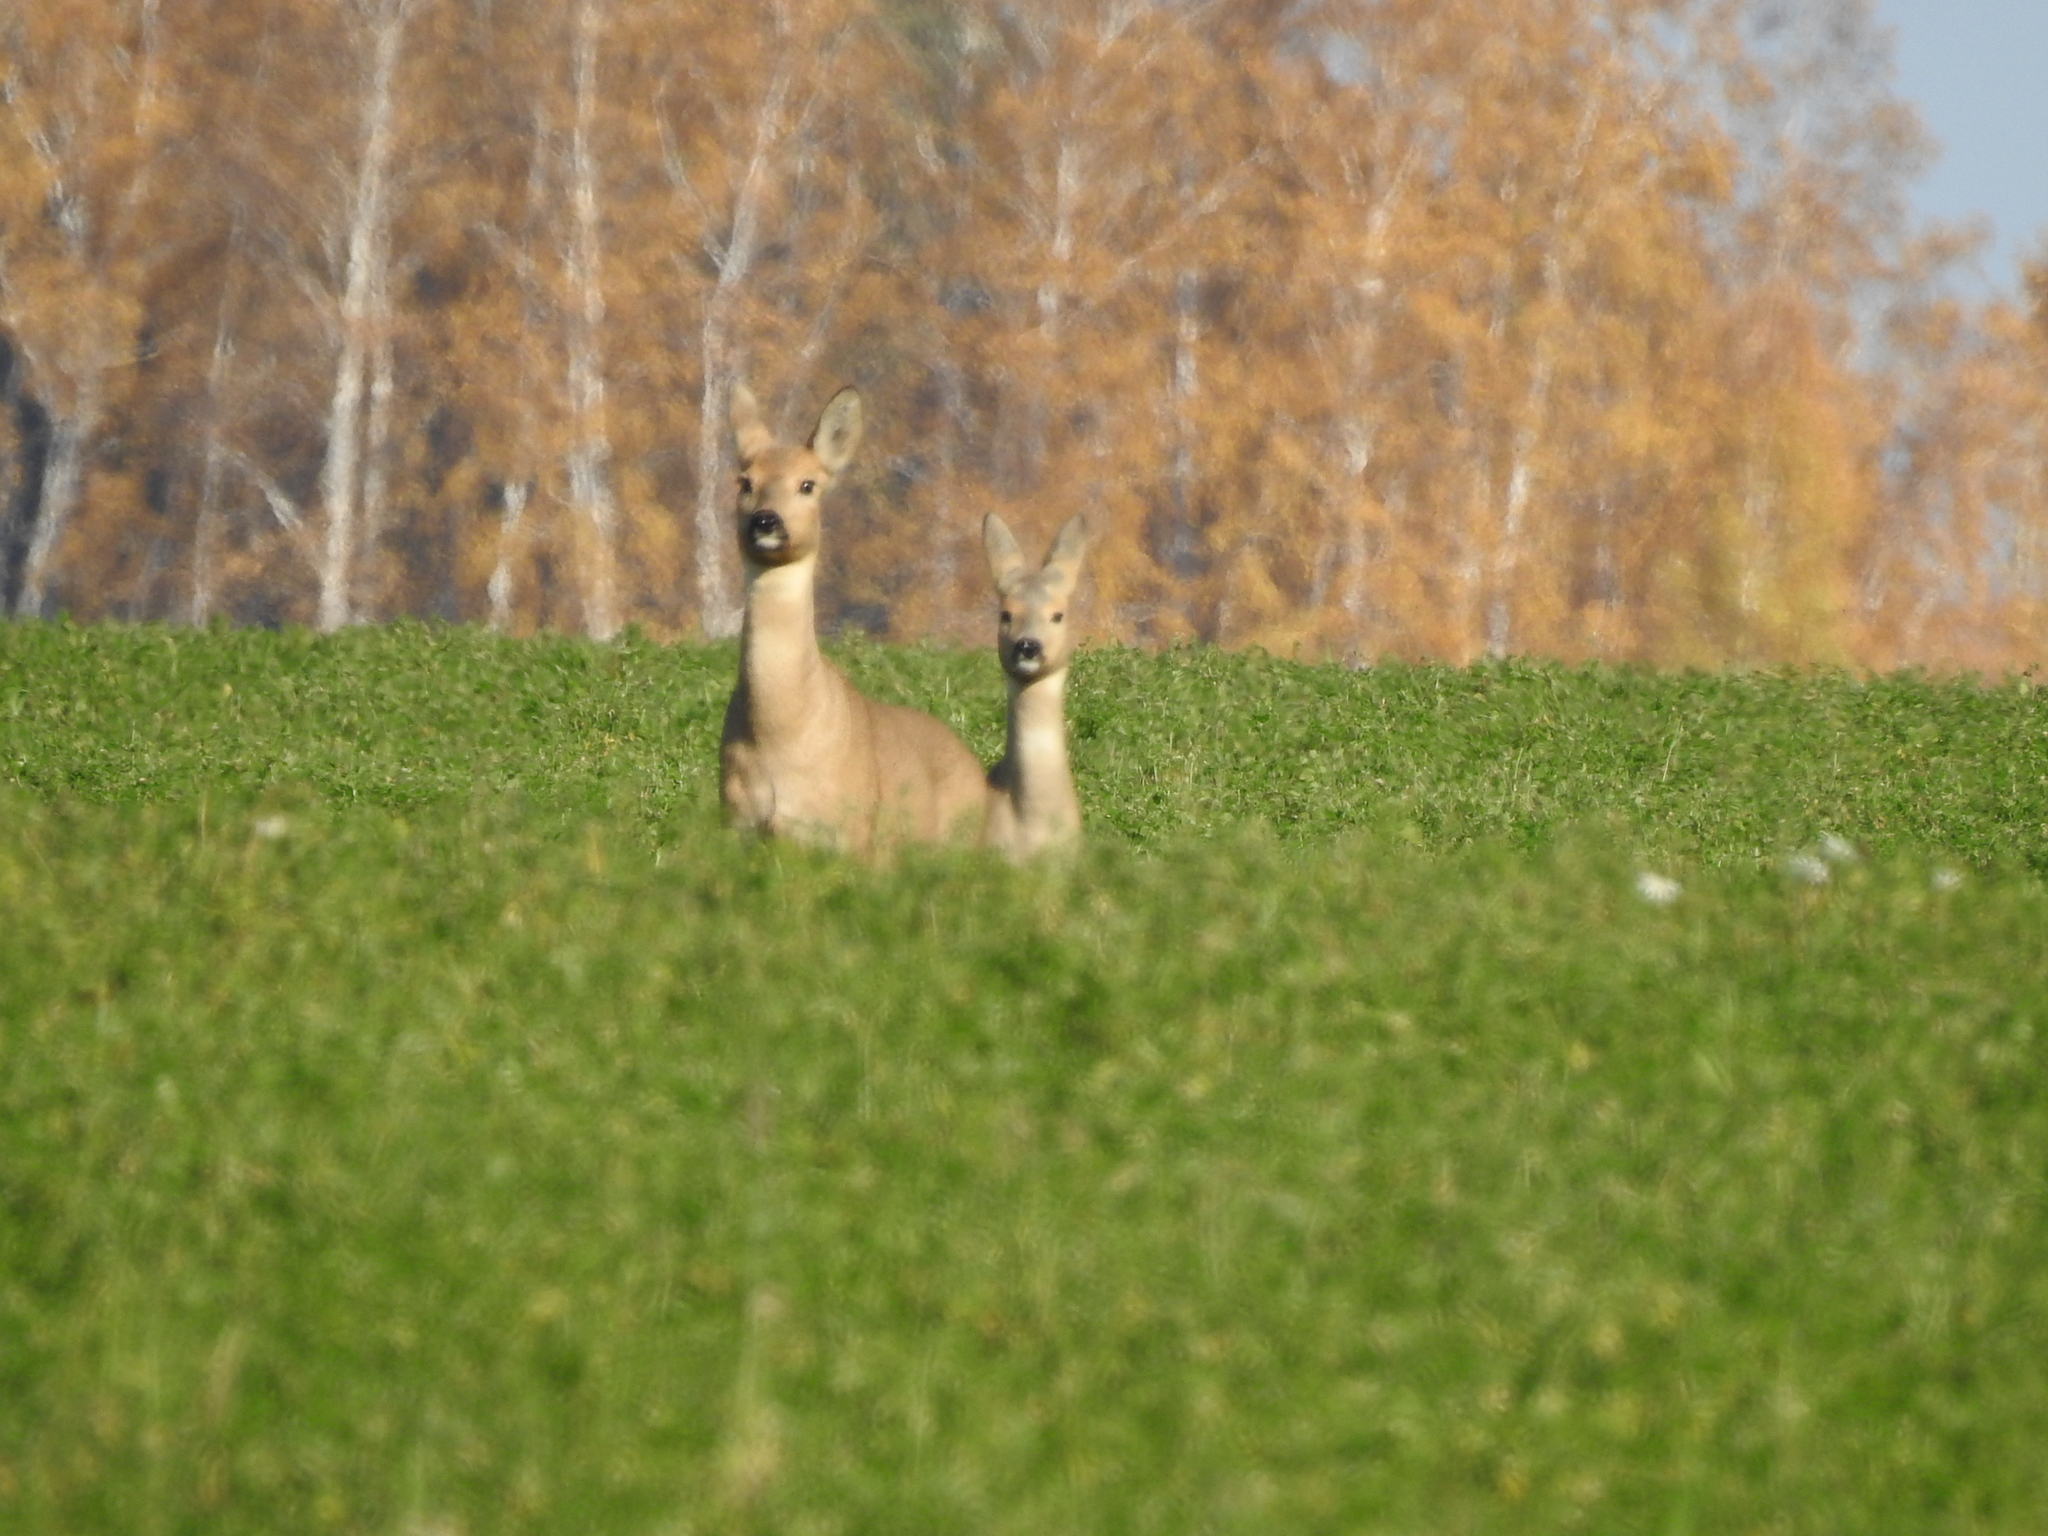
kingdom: Animalia
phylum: Chordata
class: Mammalia
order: Artiodactyla
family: Cervidae
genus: Capreolus
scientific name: Capreolus pygargus
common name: Siberian roe
